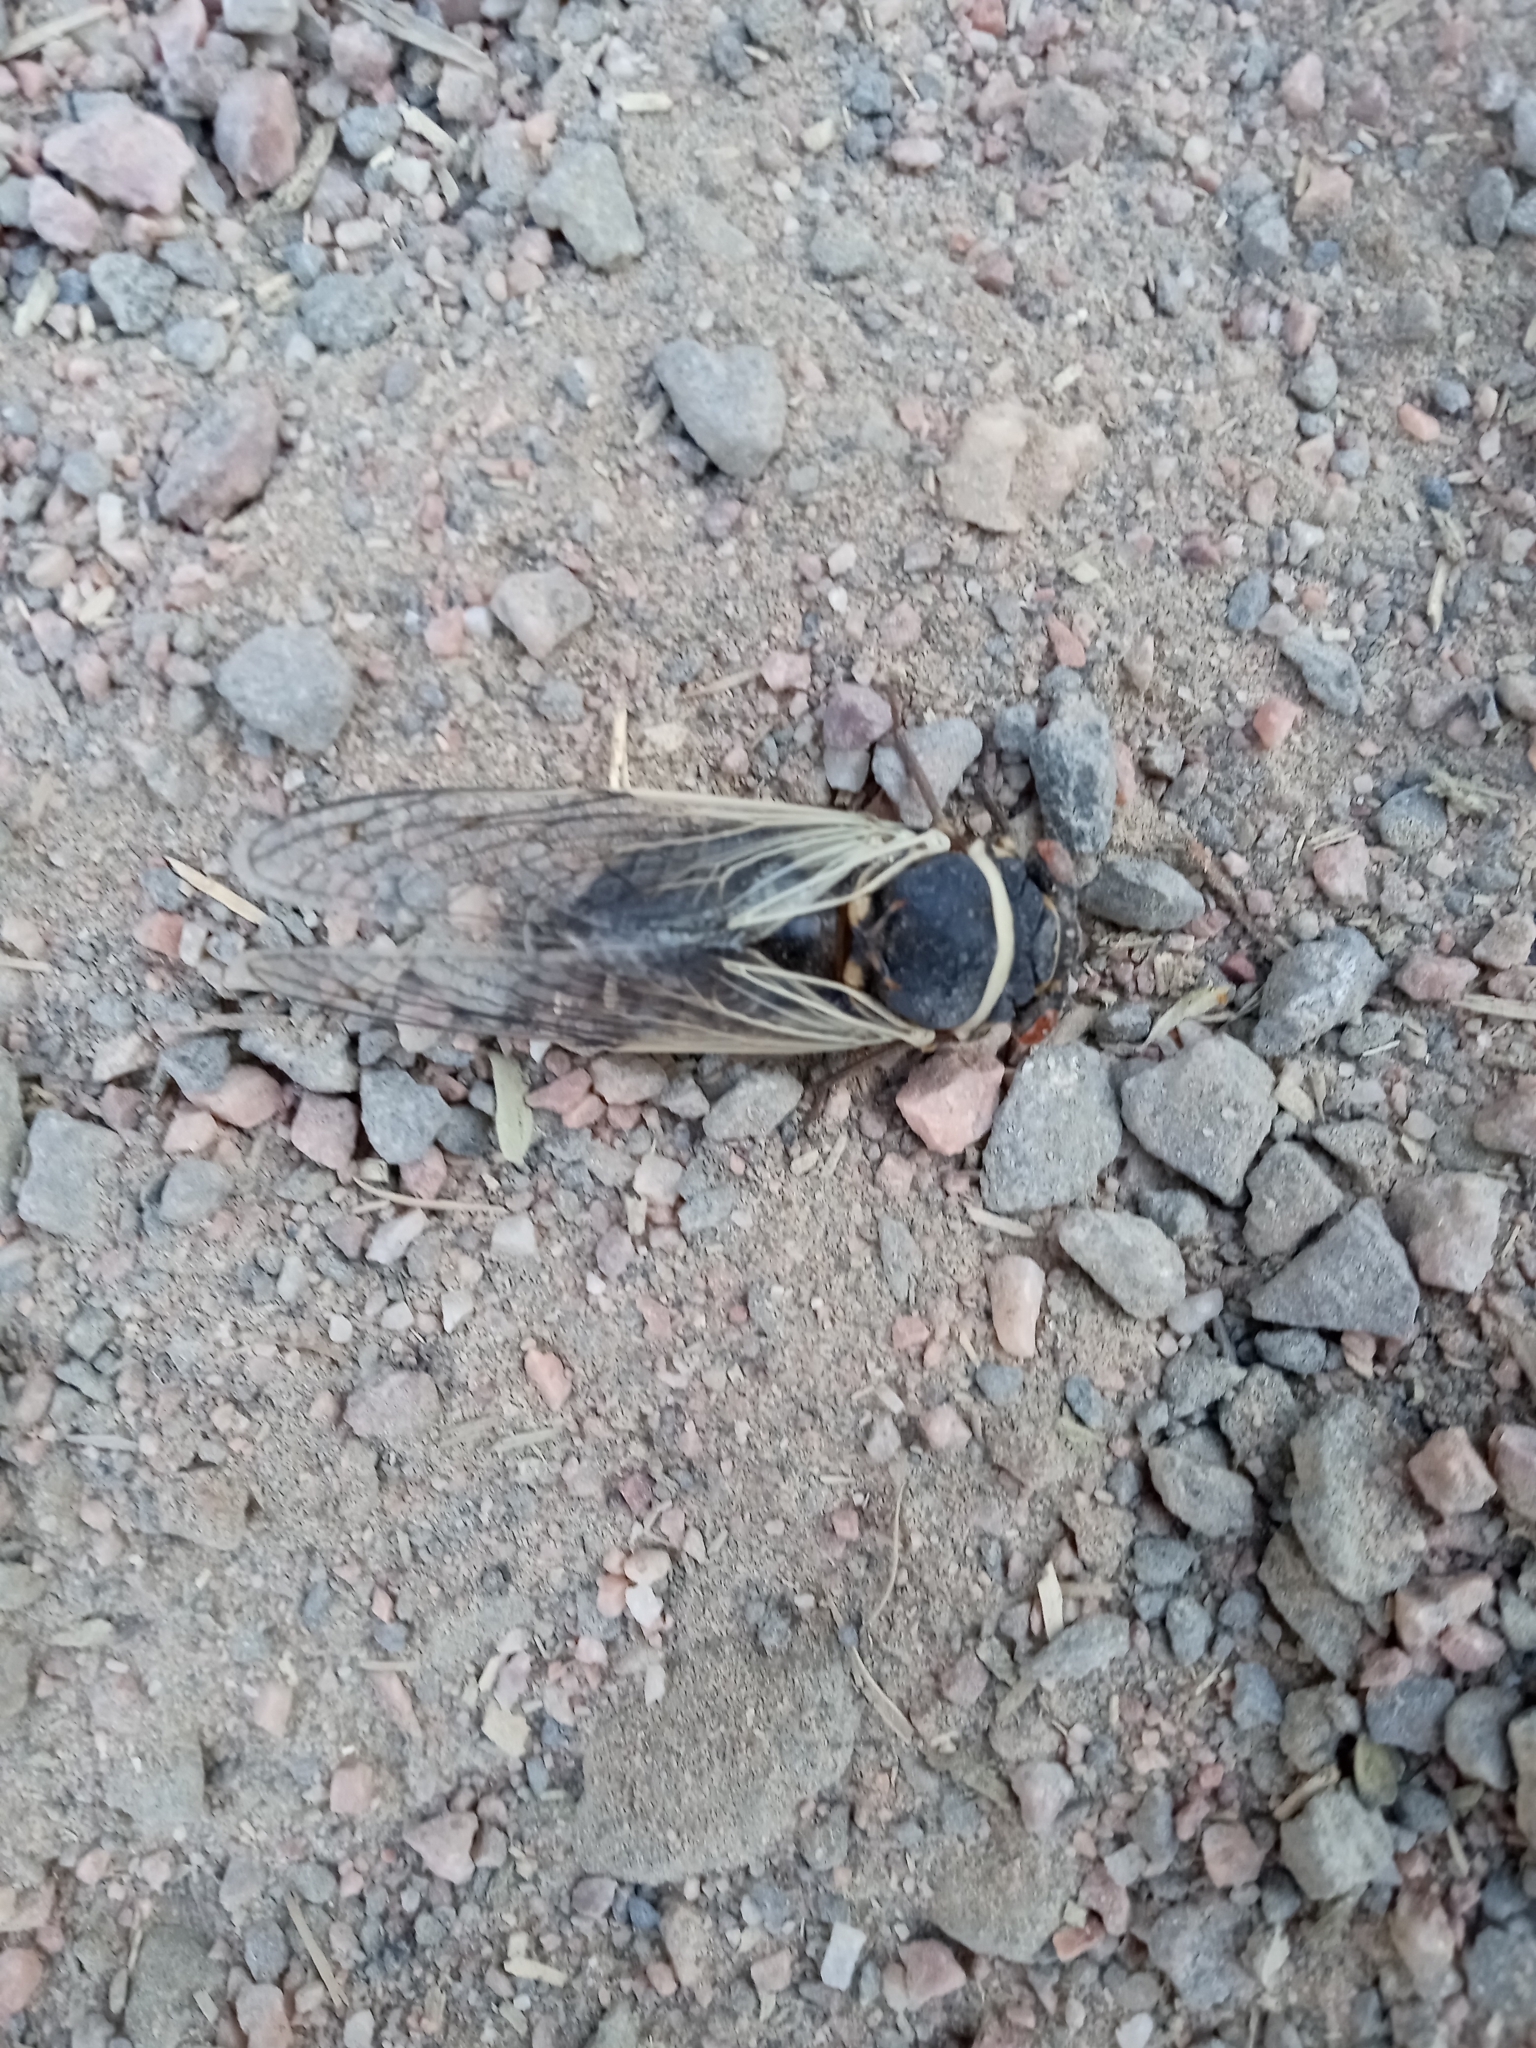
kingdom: Animalia
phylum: Arthropoda
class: Insecta
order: Hemiptera
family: Cicadidae
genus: Diceroprocta
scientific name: Diceroprocta apache
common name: Desert cicada
